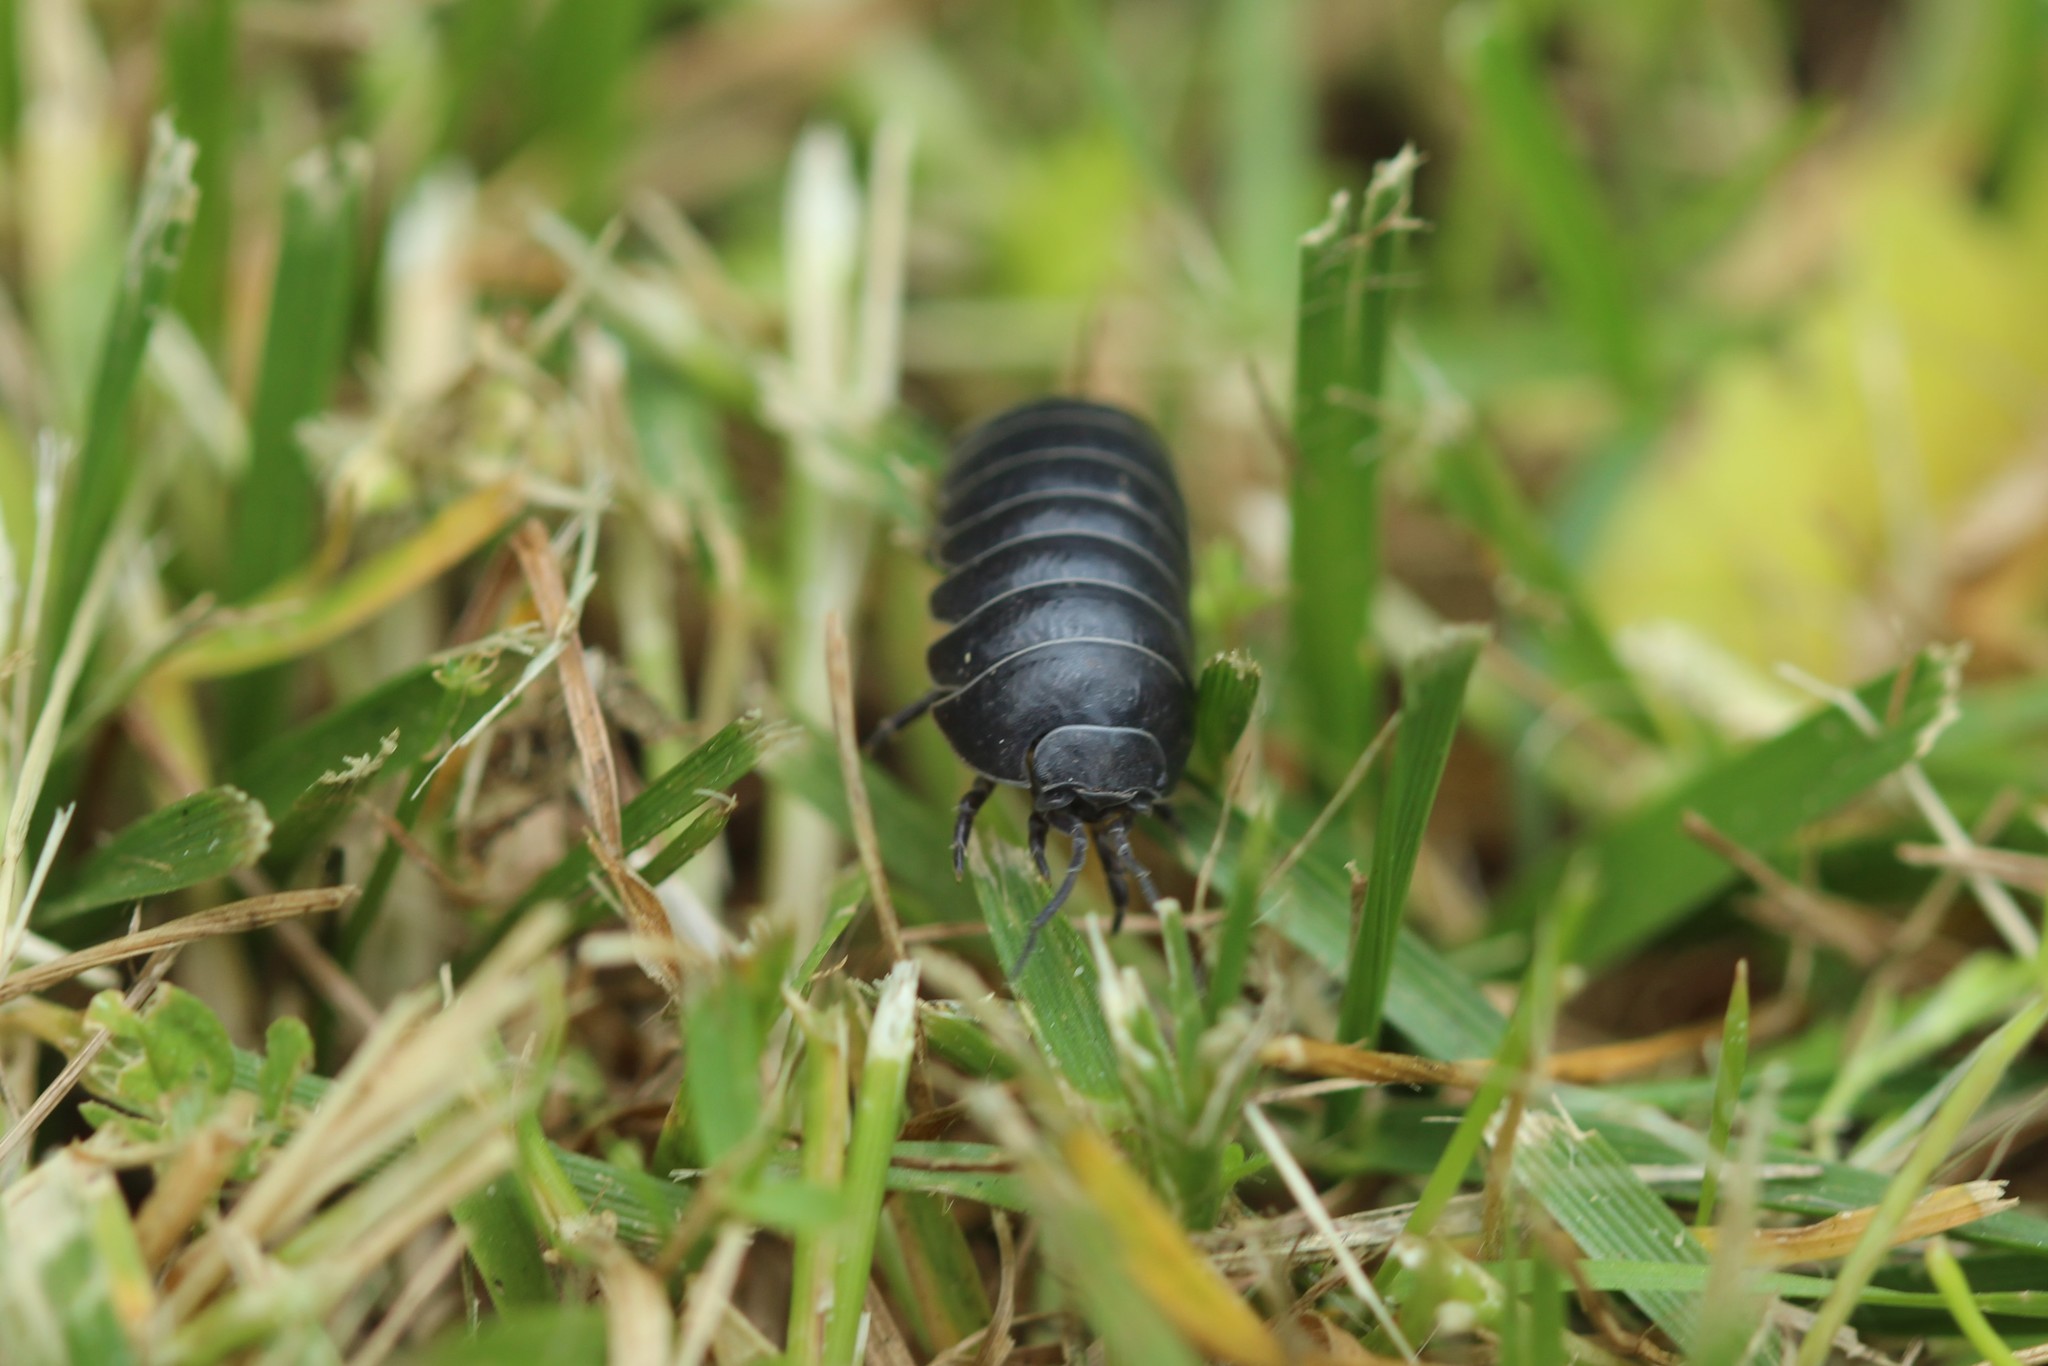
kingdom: Animalia
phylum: Arthropoda
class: Malacostraca
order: Isopoda
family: Armadillidiidae
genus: Armadillidium
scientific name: Armadillidium vulgare
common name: Common pill woodlouse
